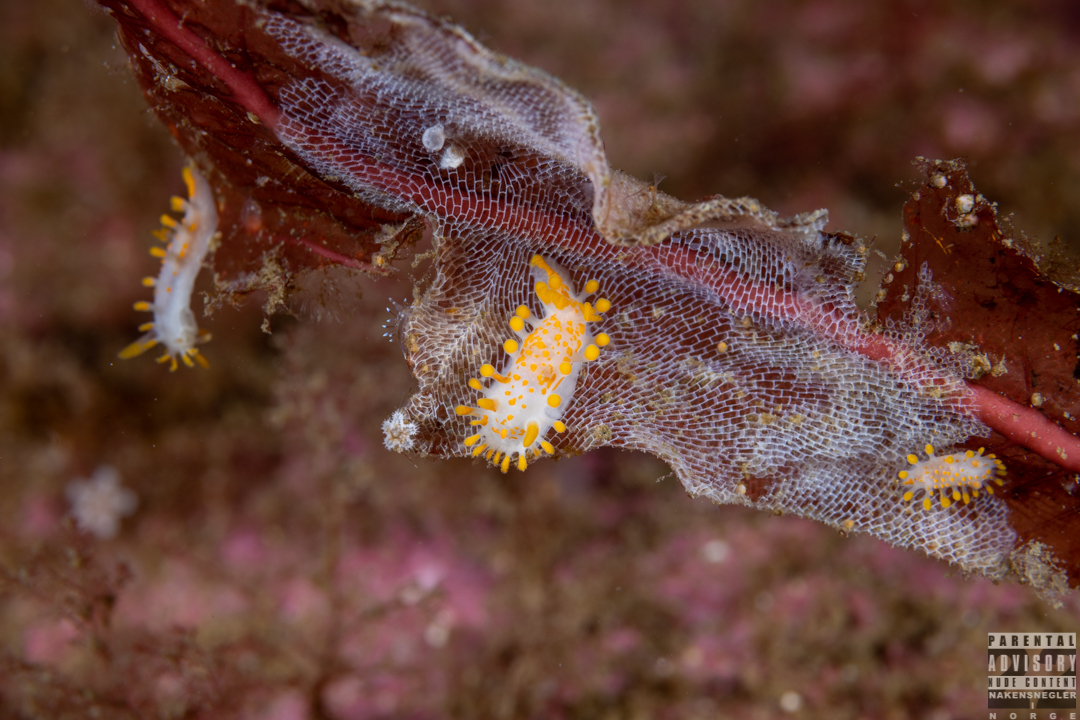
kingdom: Animalia
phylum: Mollusca
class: Gastropoda
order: Nudibranchia
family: Polyceridae
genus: Limacia
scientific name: Limacia clavigera
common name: Orange-clubbed sea slug
